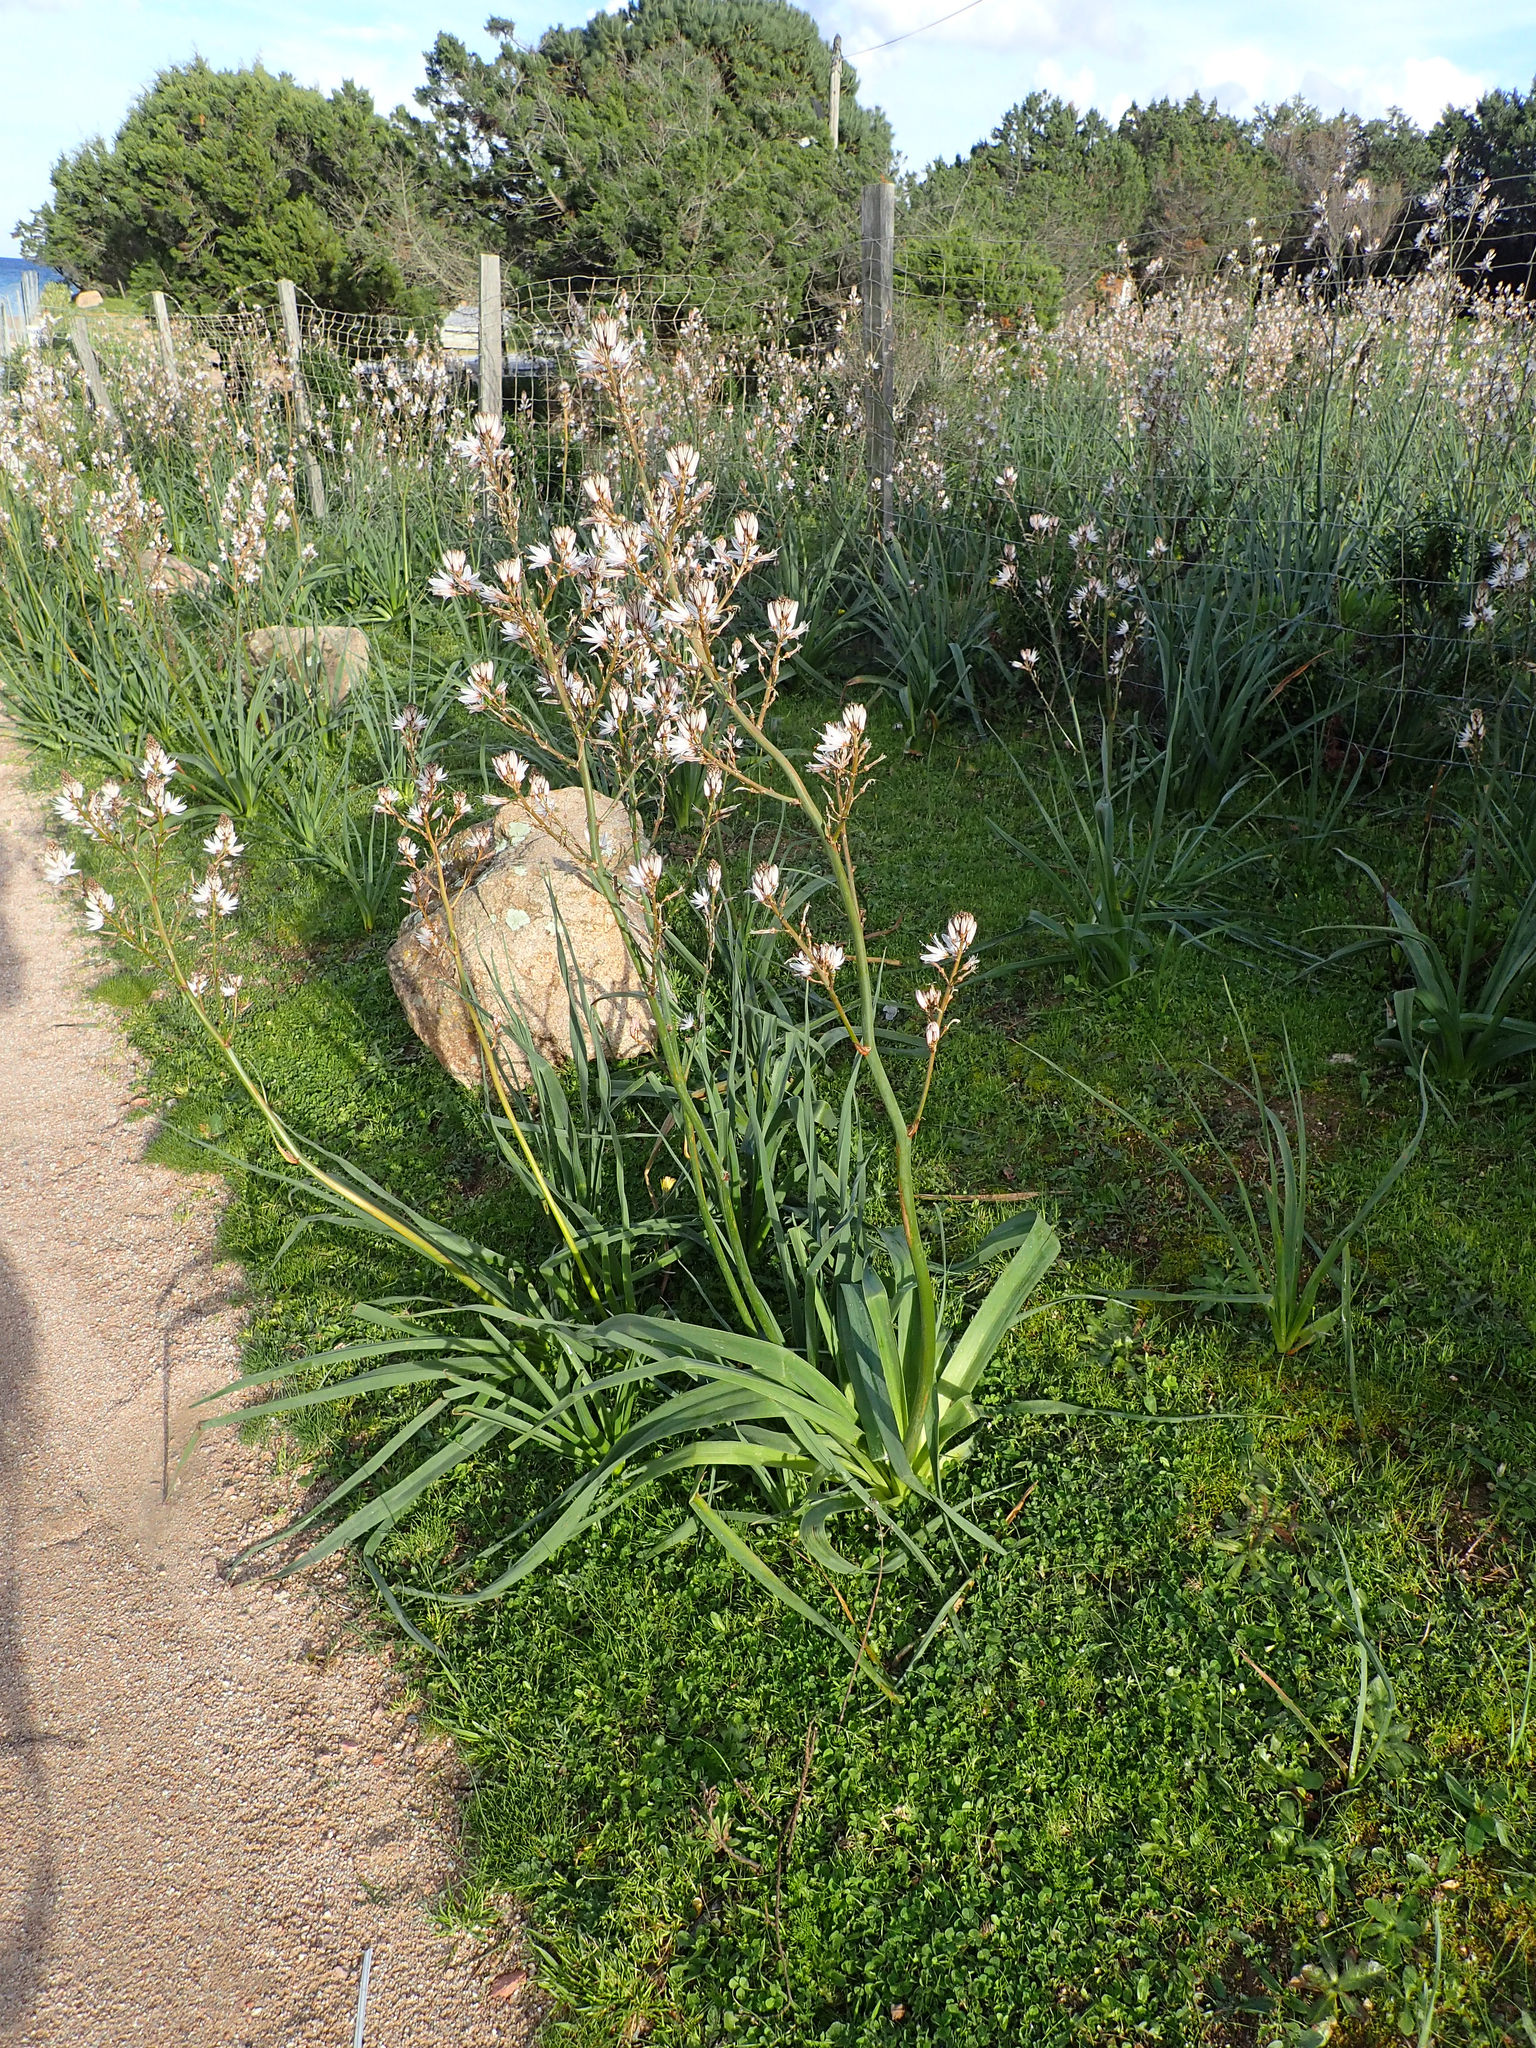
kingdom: Plantae
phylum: Tracheophyta
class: Liliopsida
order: Asparagales
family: Asphodelaceae
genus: Asphodelus
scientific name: Asphodelus ramosus
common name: Silverrod
